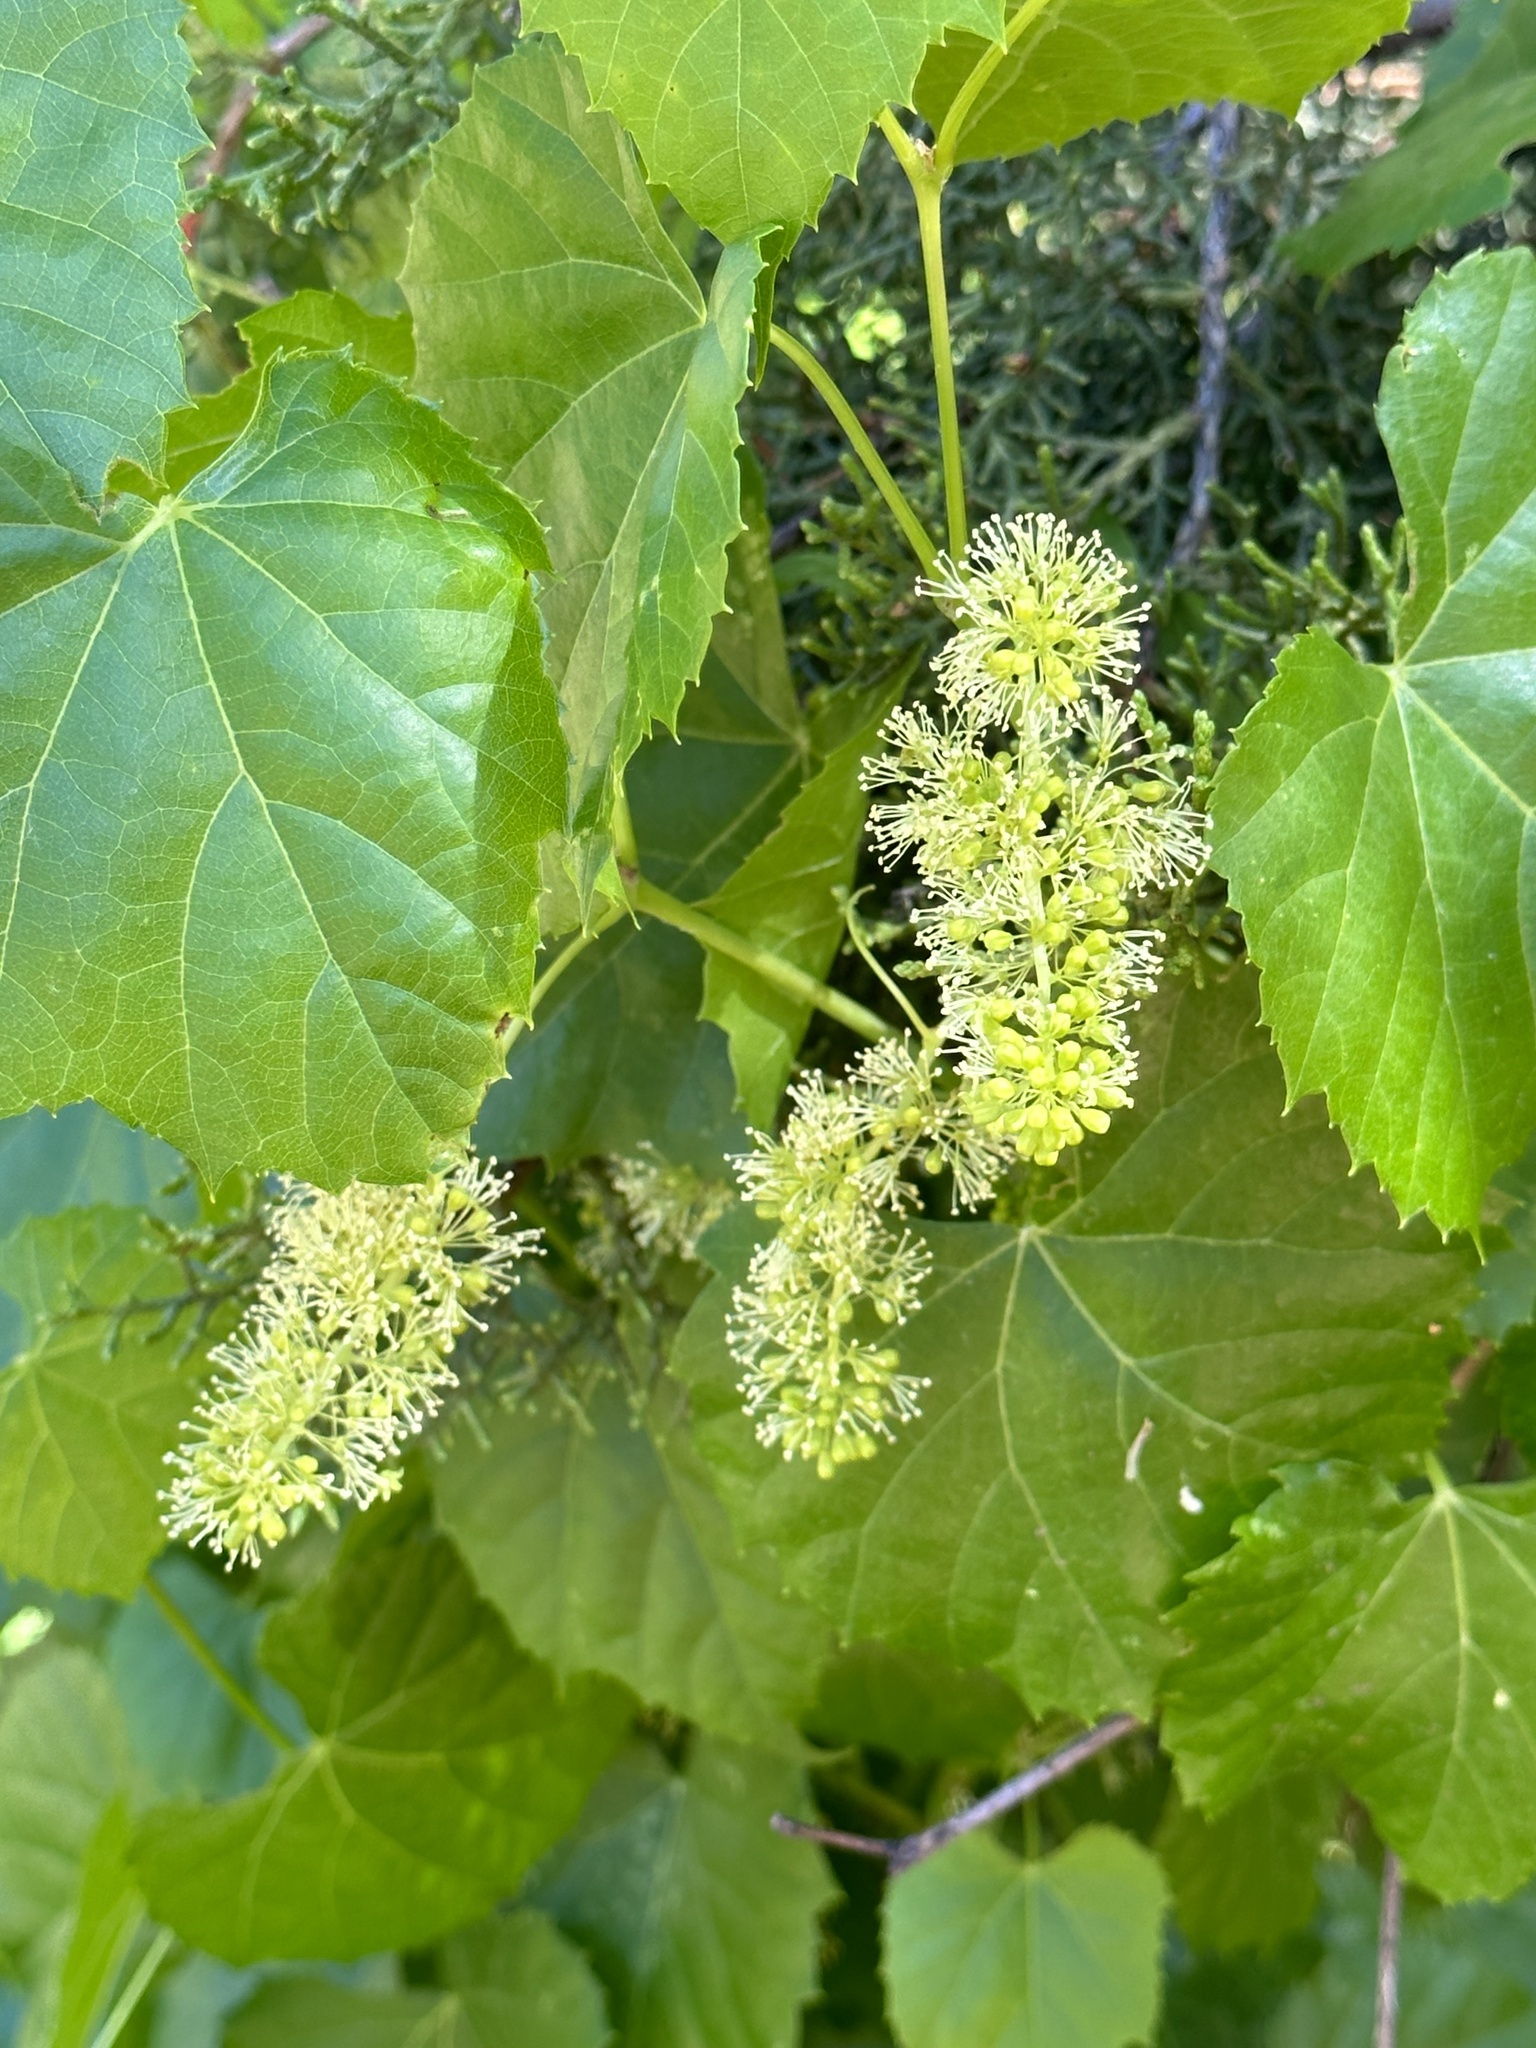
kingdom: Plantae
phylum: Tracheophyta
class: Magnoliopsida
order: Vitales
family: Vitaceae
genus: Vitis
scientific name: Vitis arizonica
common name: Canyon grape
